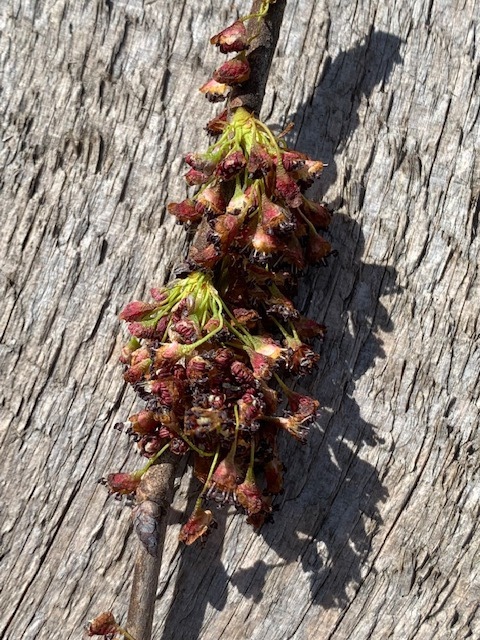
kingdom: Plantae
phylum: Tracheophyta
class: Magnoliopsida
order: Rosales
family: Ulmaceae
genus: Ulmus
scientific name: Ulmus americana
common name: American elm
